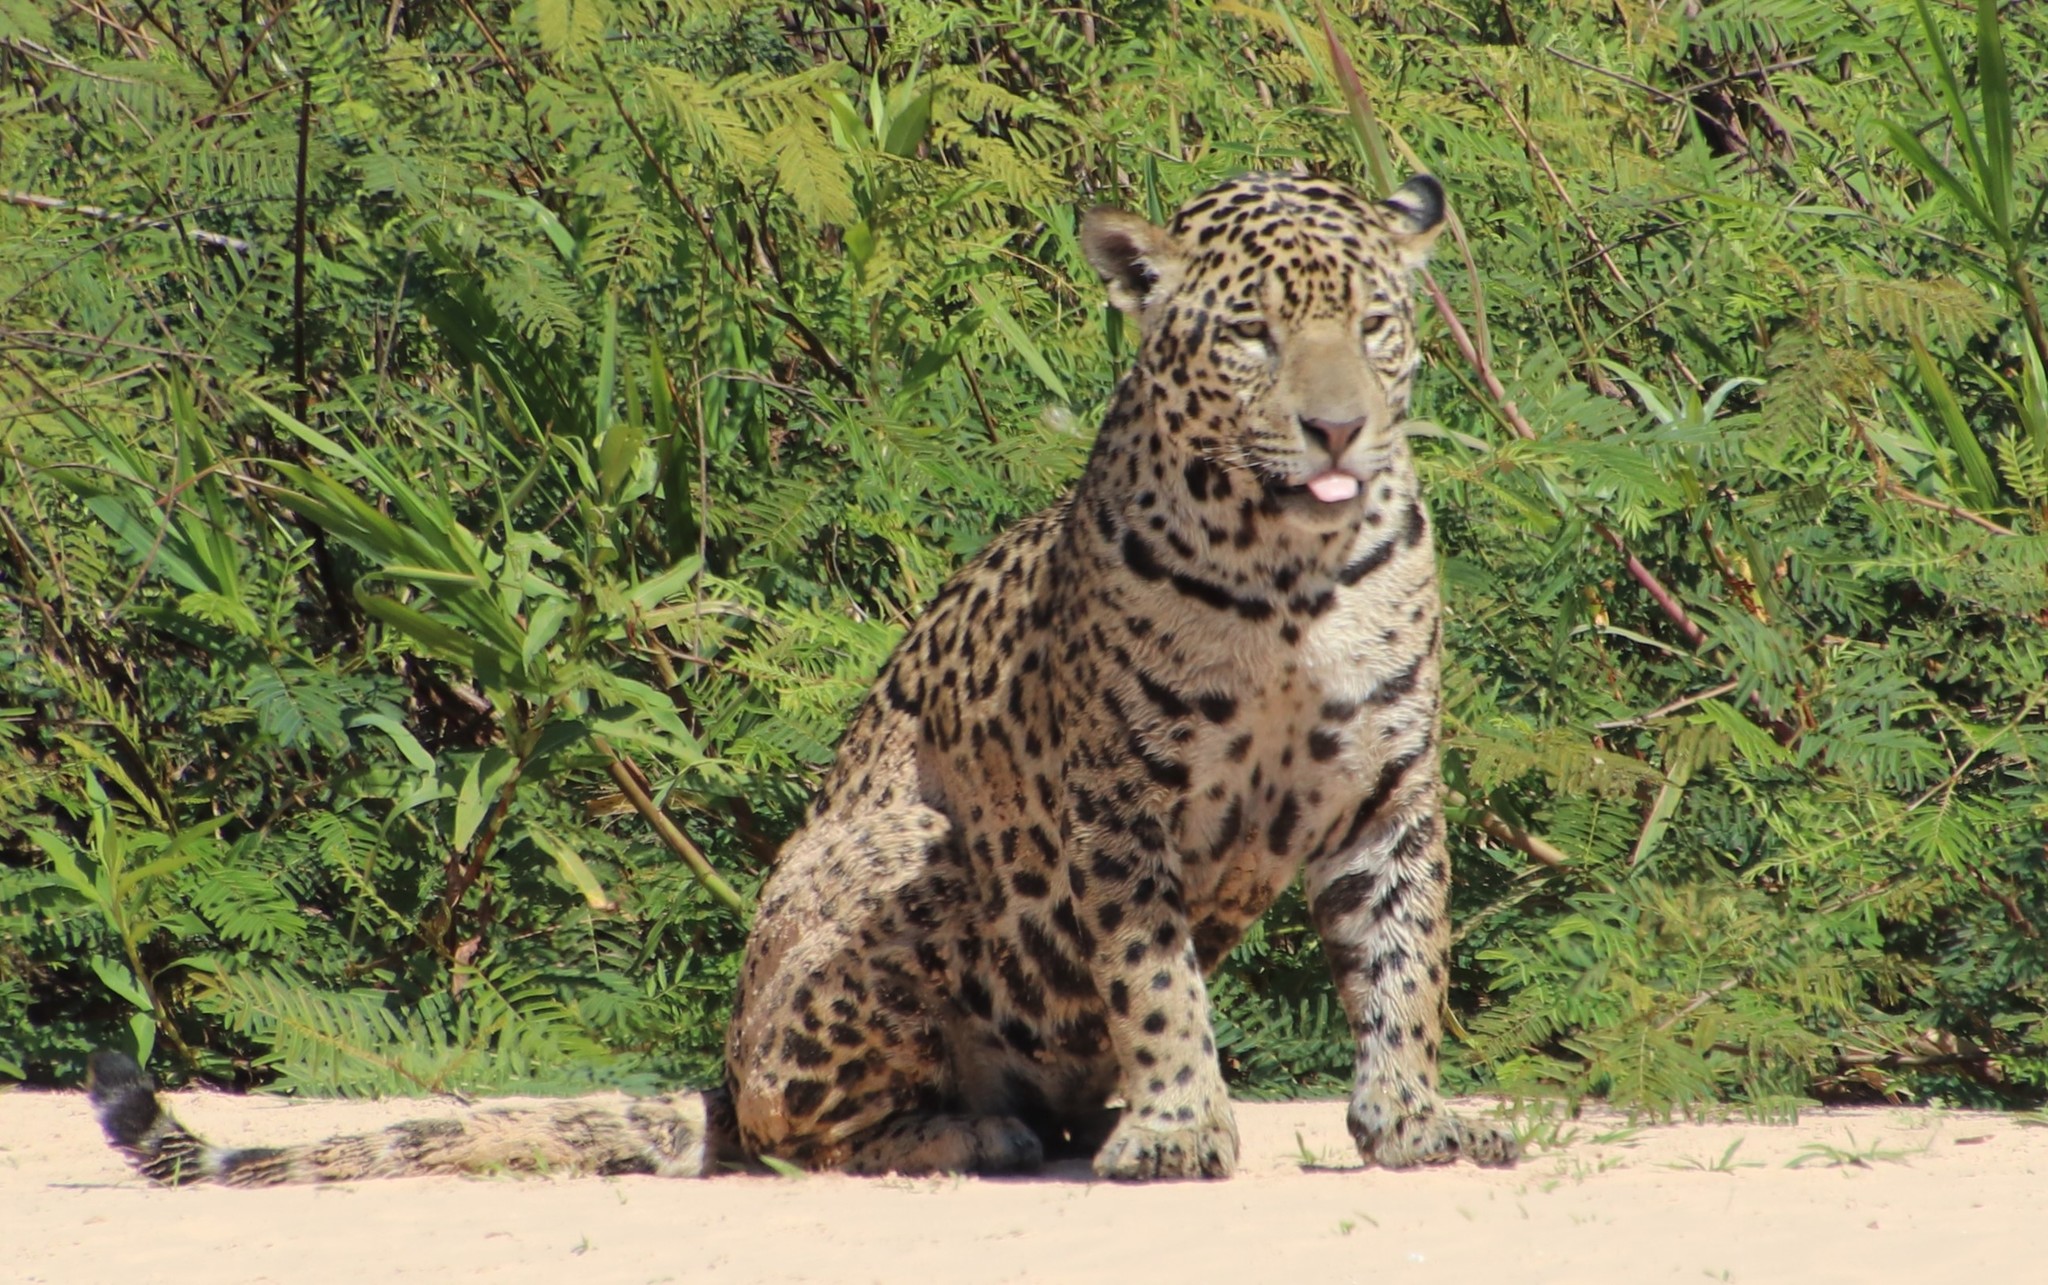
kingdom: Animalia
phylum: Chordata
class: Mammalia
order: Carnivora
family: Felidae
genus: Panthera
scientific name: Panthera onca
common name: Jaguar
